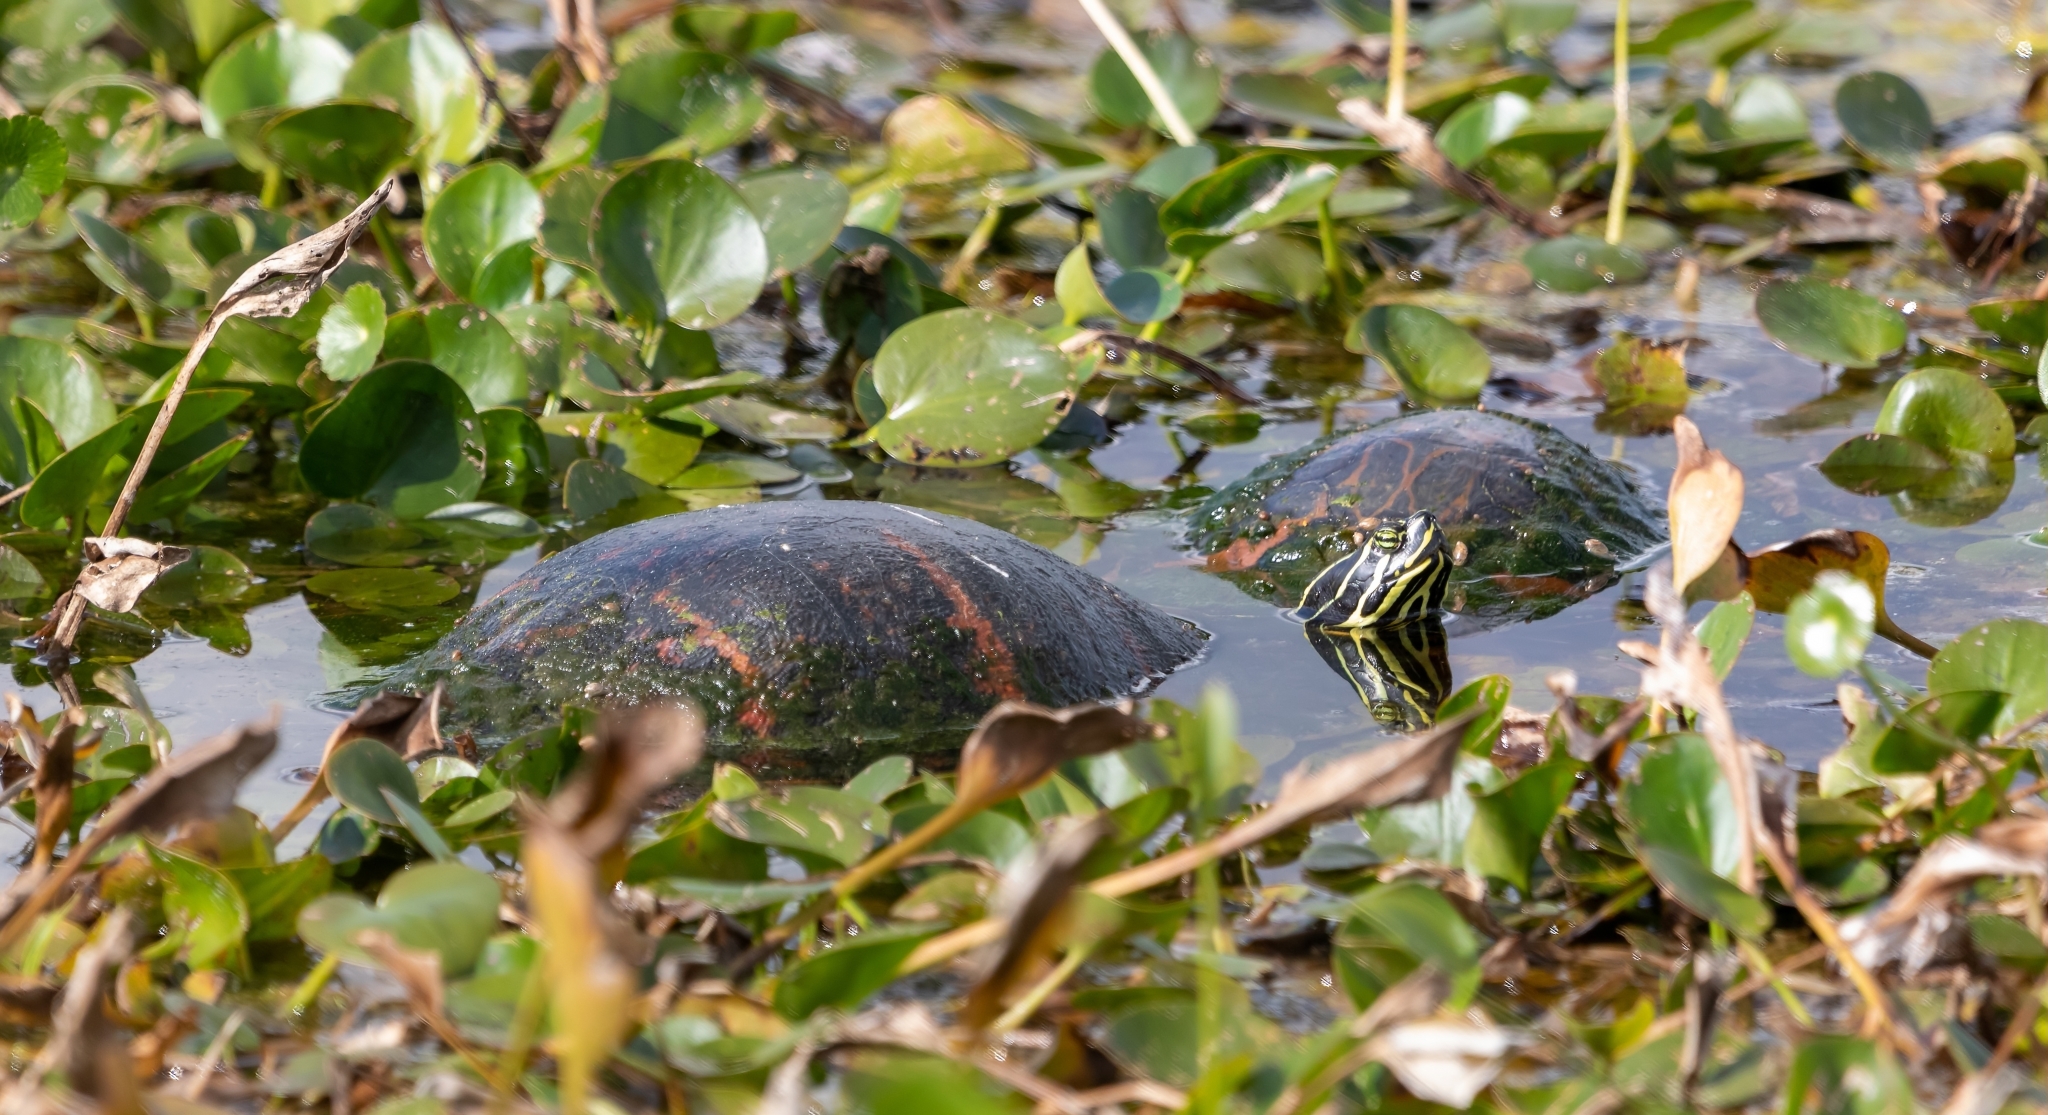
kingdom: Animalia
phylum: Chordata
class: Testudines
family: Emydidae
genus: Pseudemys
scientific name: Pseudemys nelsoni
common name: Florida red-bellied turtle
